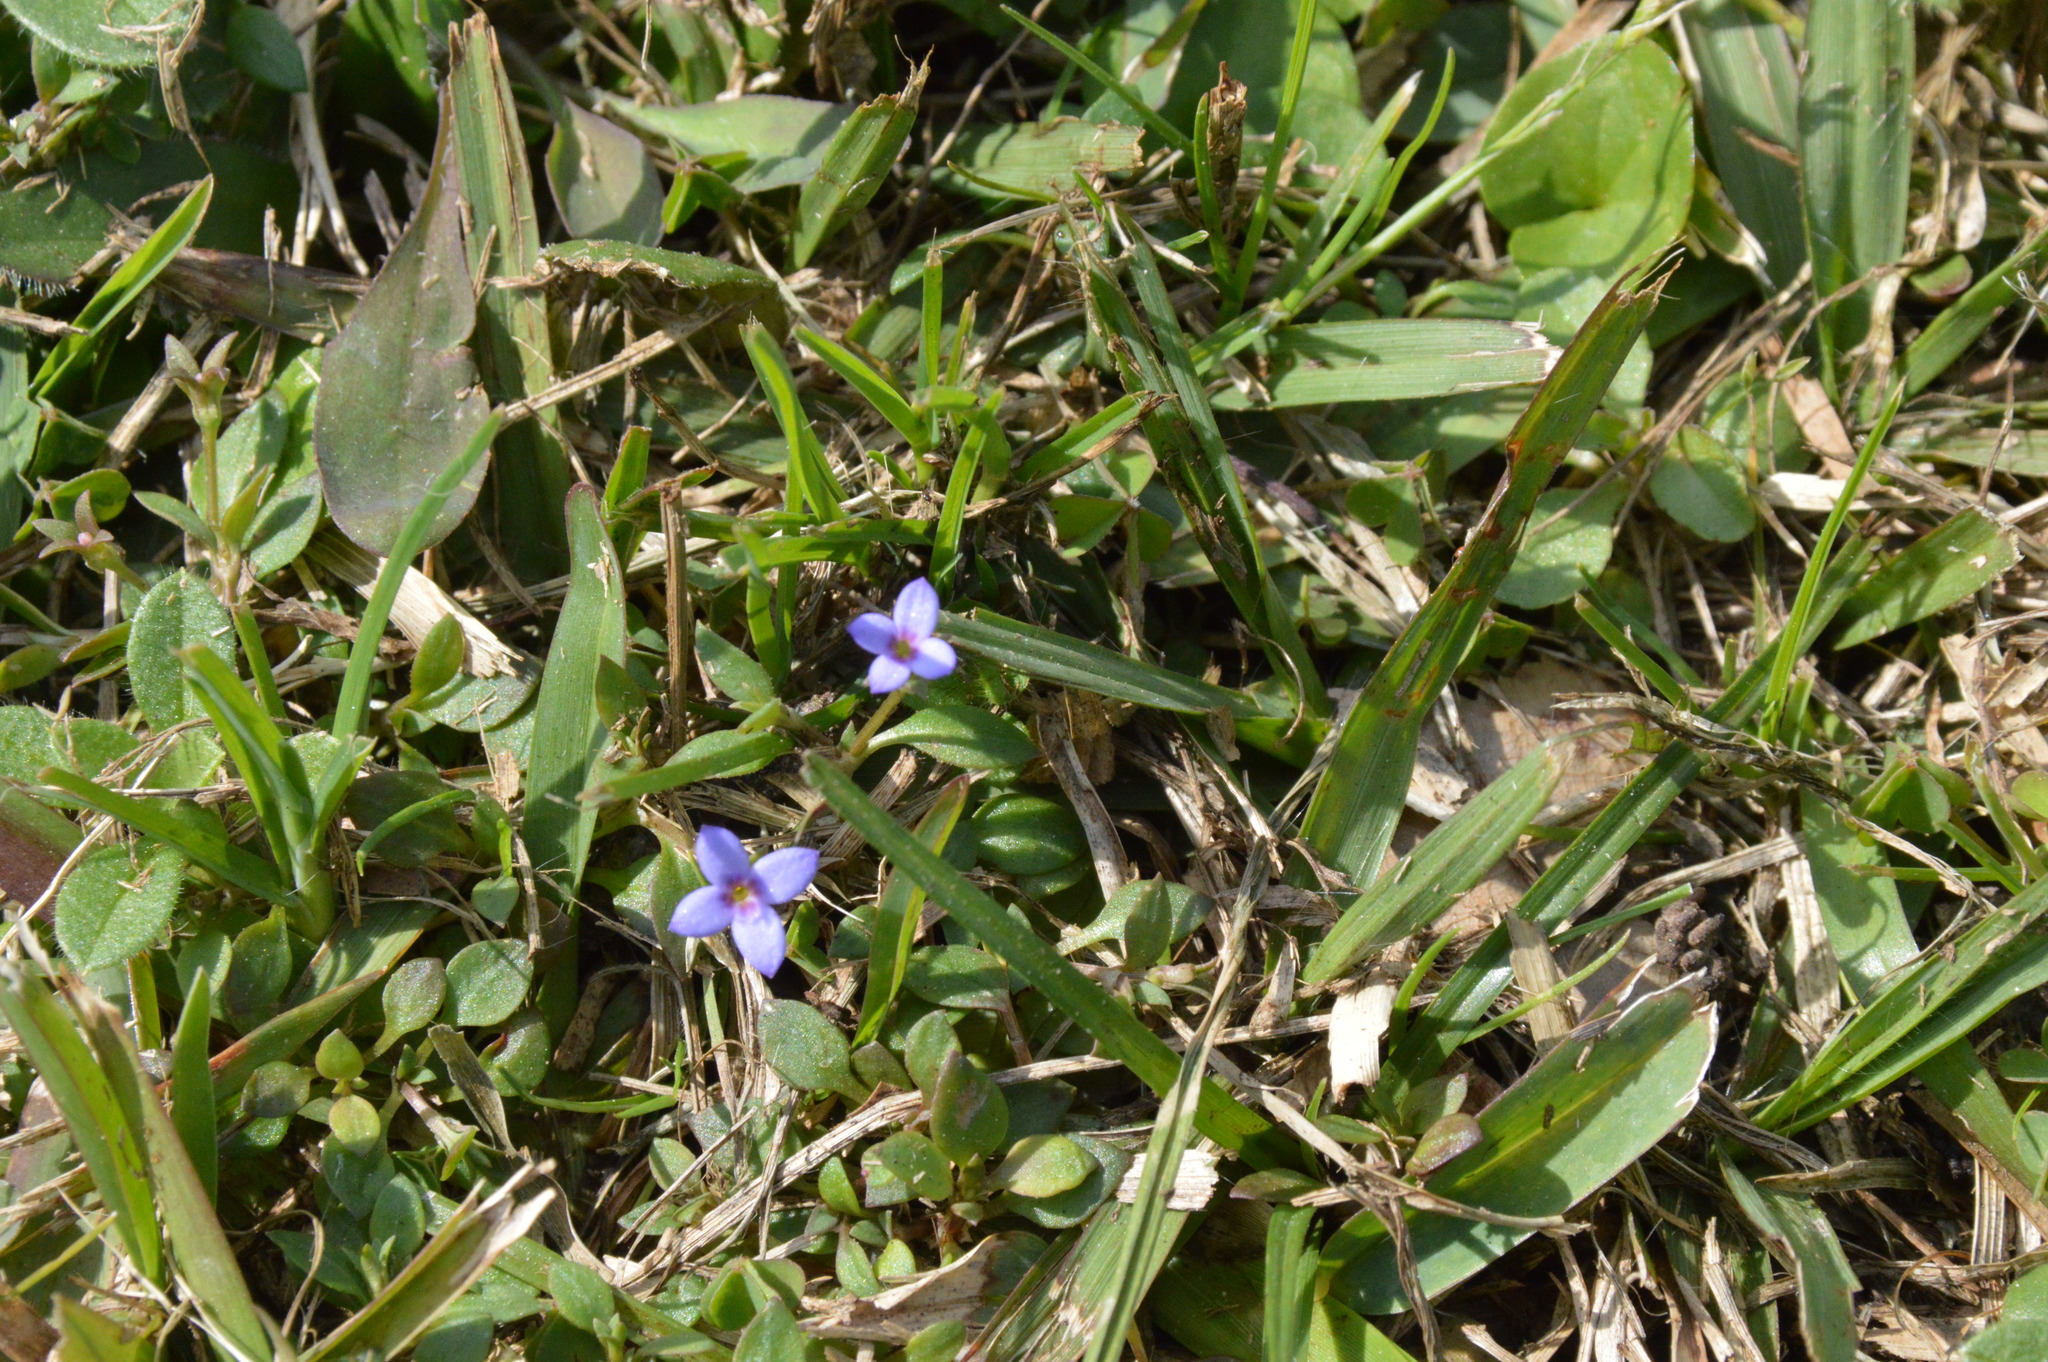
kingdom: Plantae
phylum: Tracheophyta
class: Magnoliopsida
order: Gentianales
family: Rubiaceae
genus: Houstonia
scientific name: Houstonia pusilla
